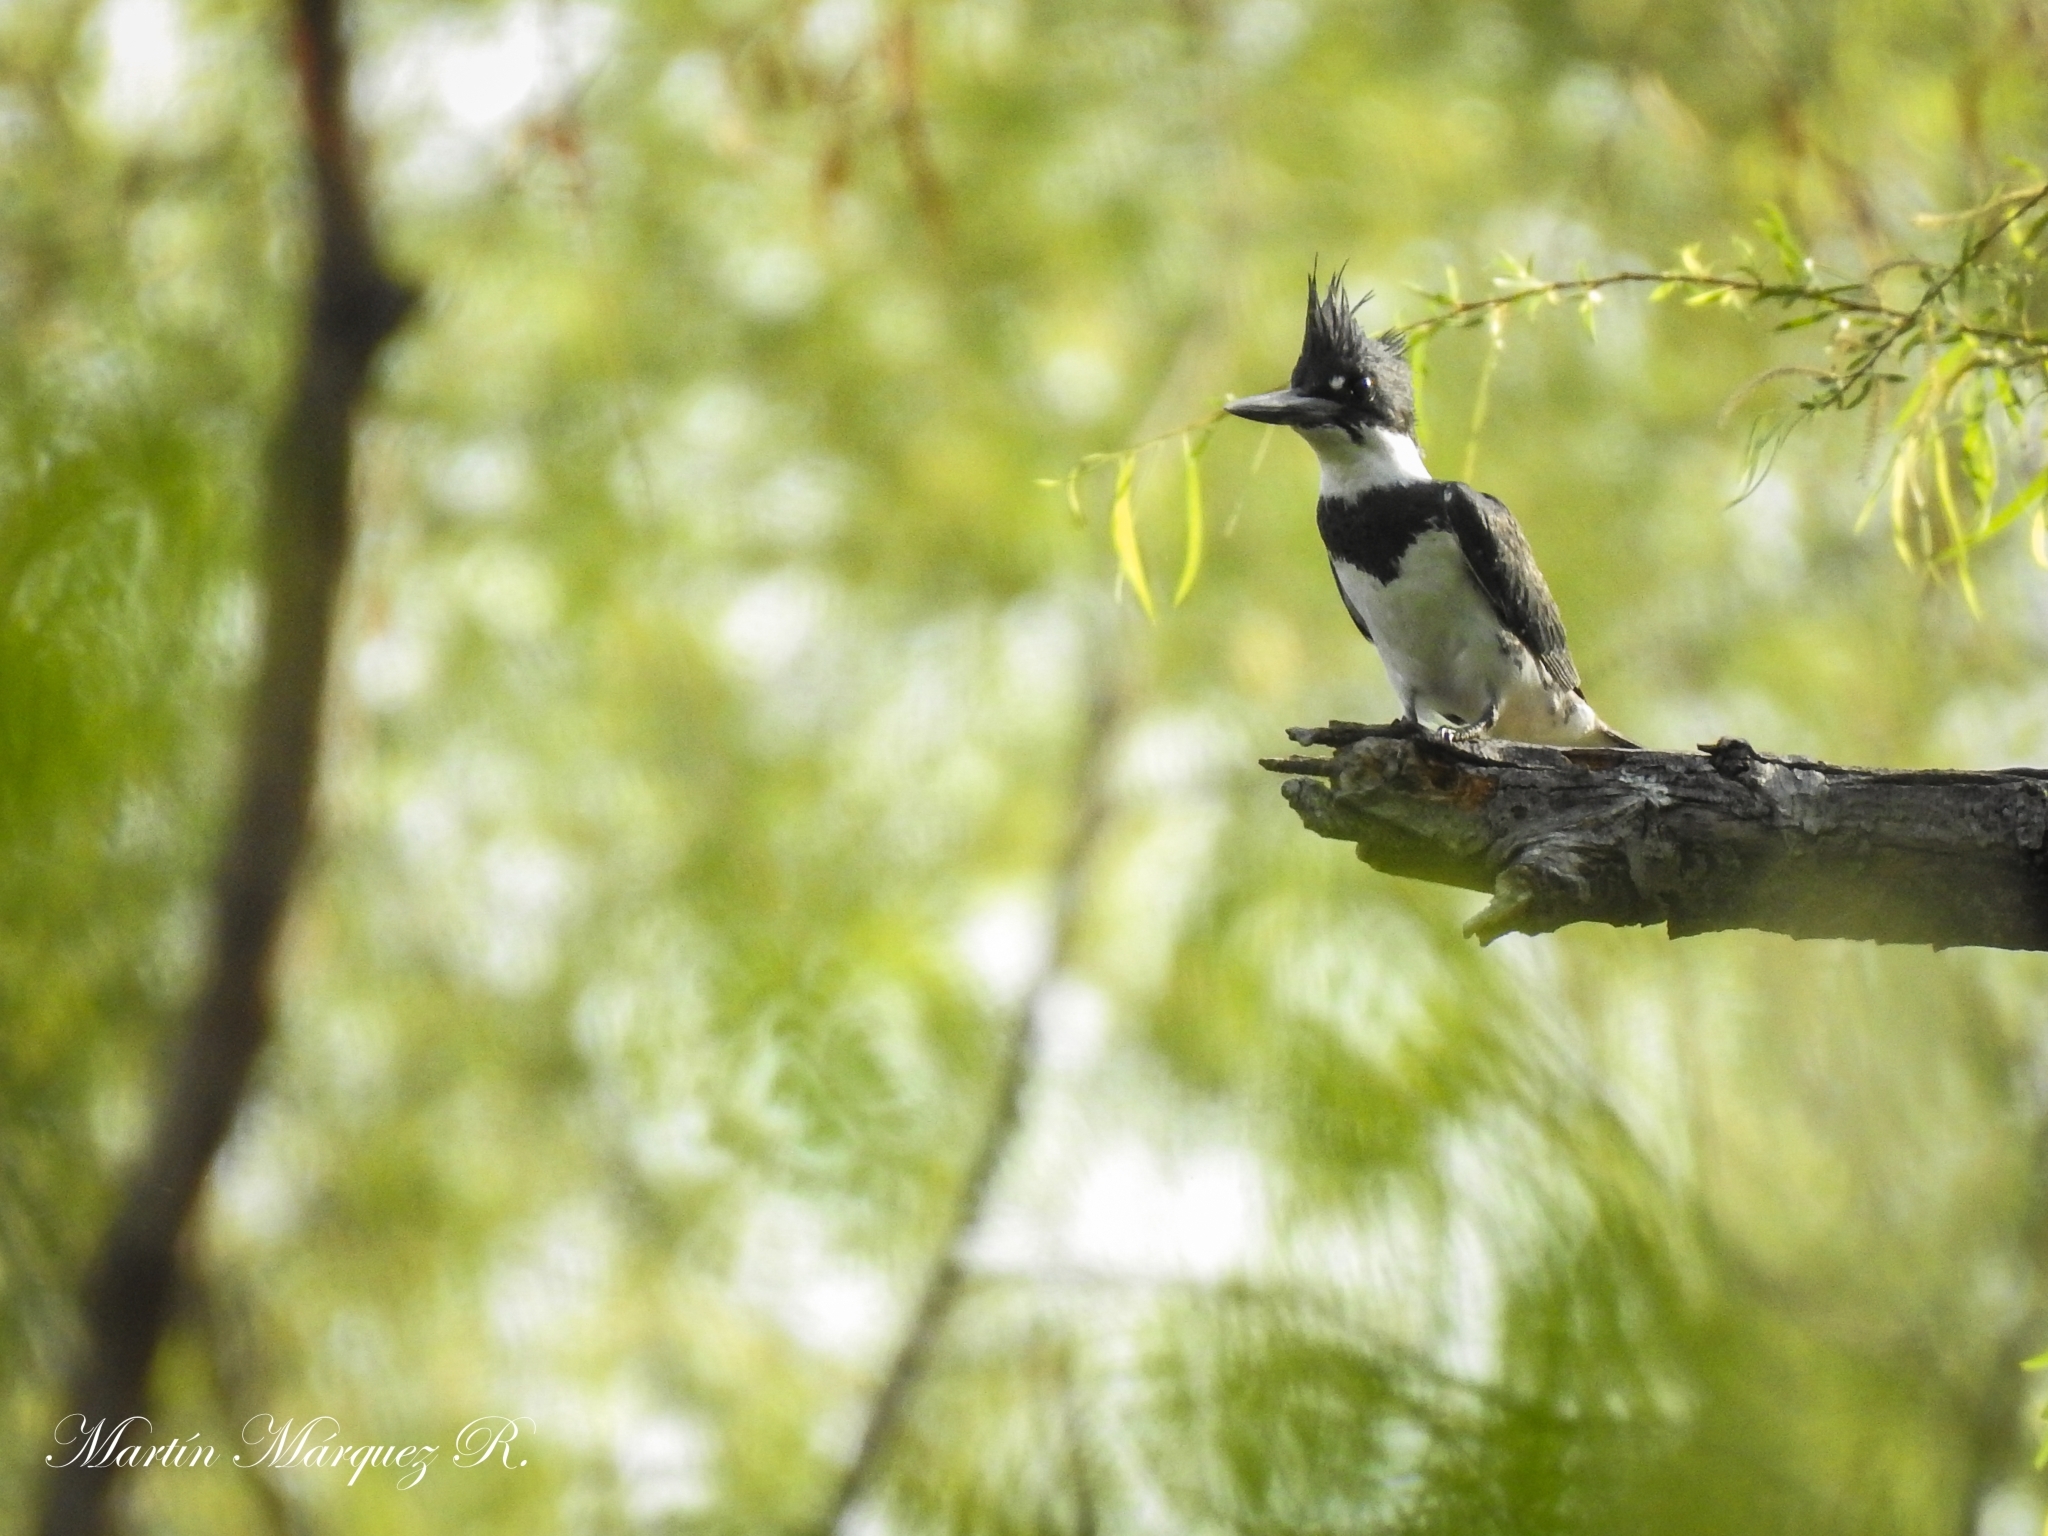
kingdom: Animalia
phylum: Chordata
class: Aves
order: Coraciiformes
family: Alcedinidae
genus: Megaceryle
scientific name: Megaceryle alcyon
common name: Belted kingfisher
